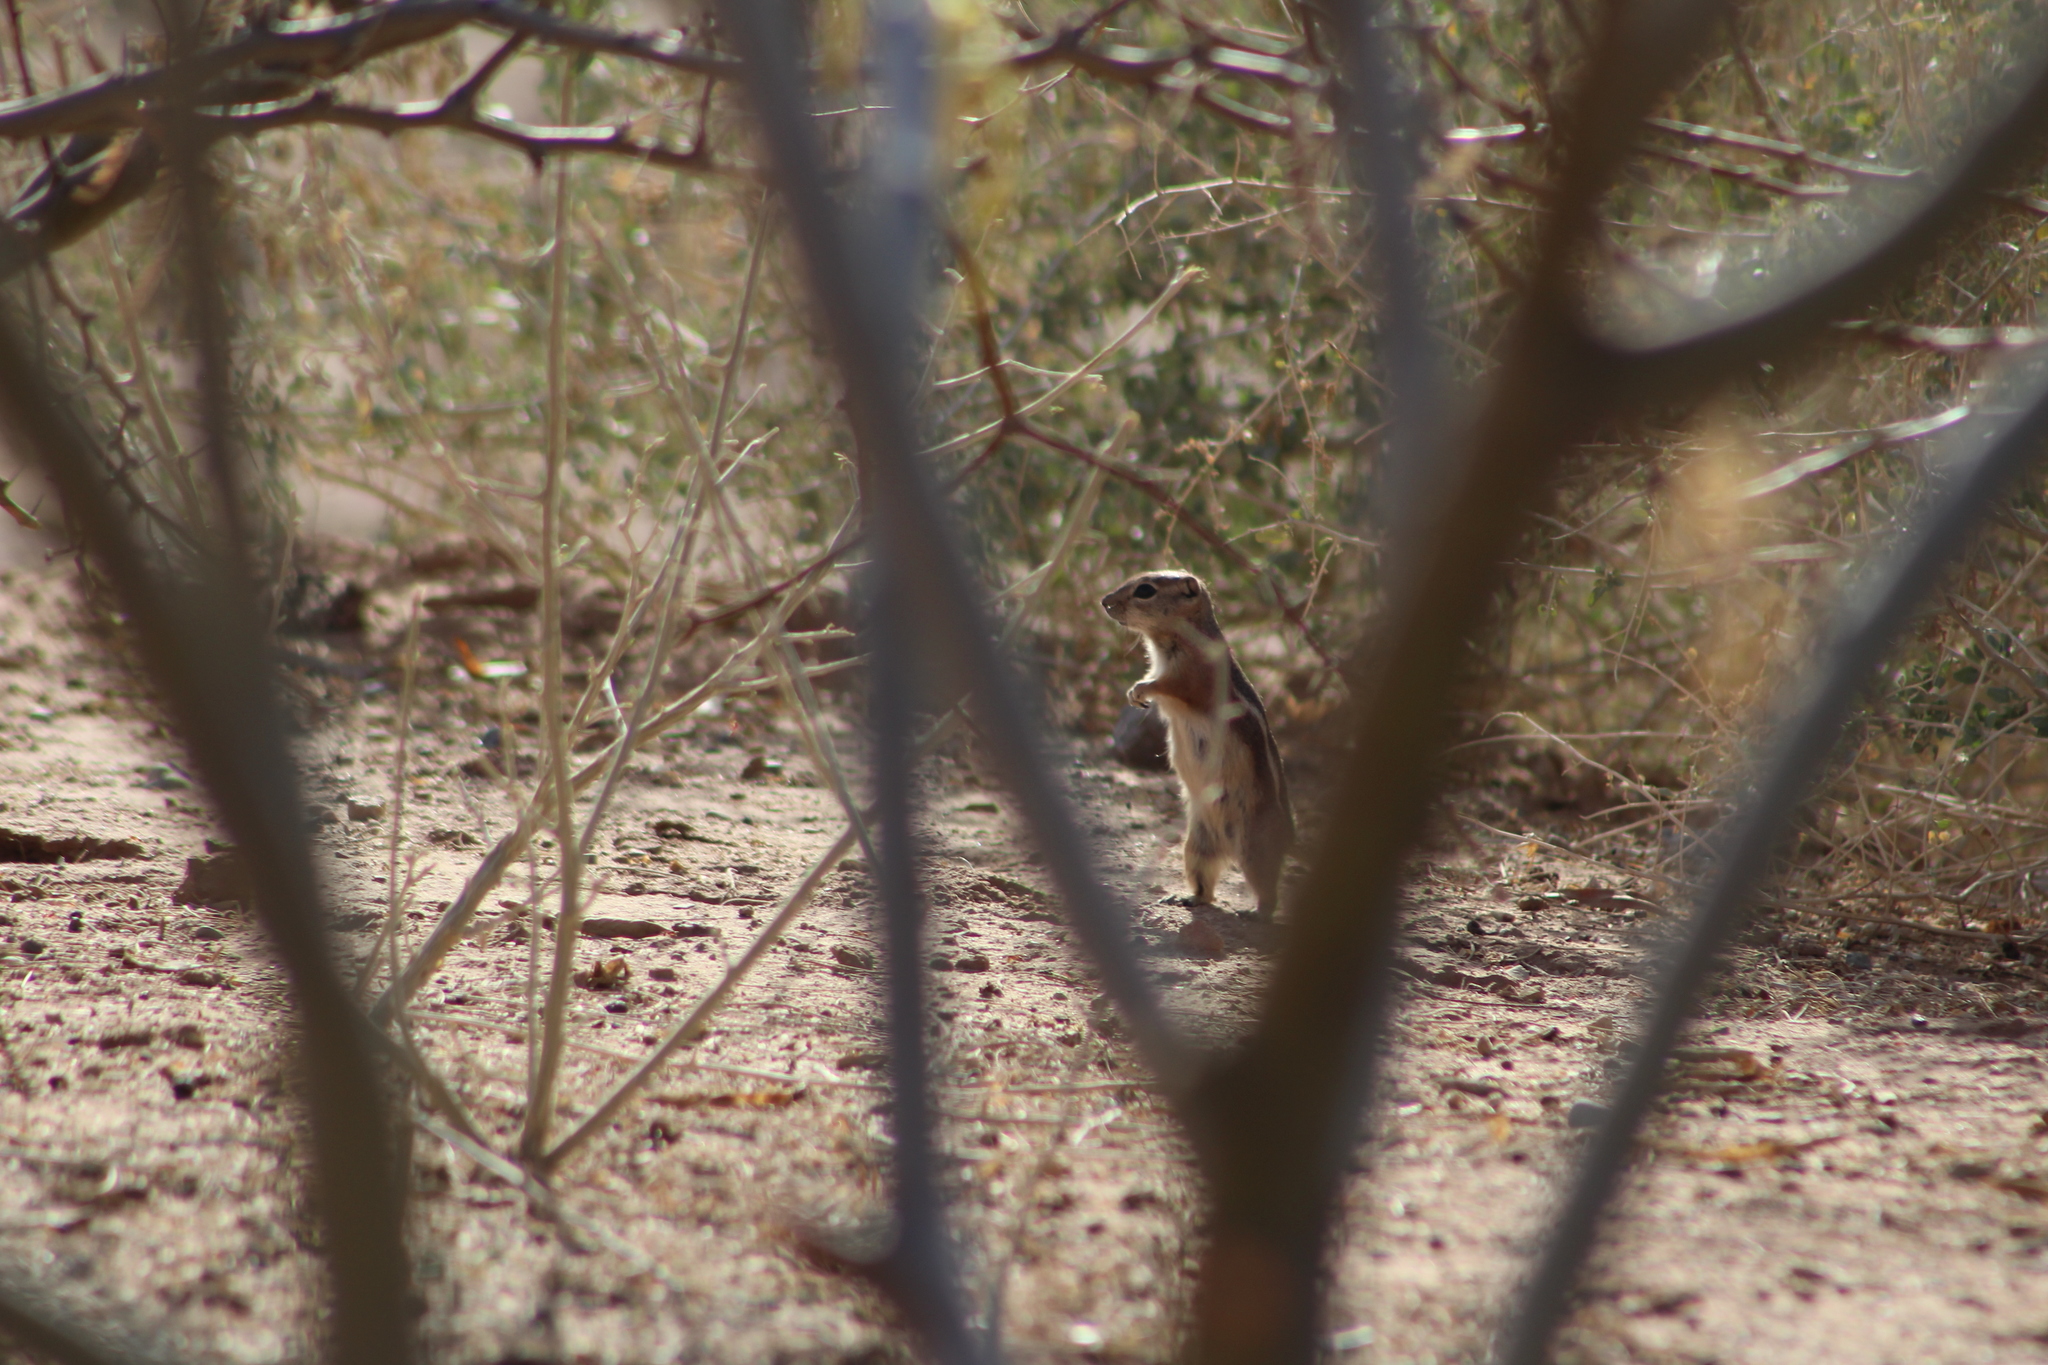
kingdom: Animalia
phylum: Chordata
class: Mammalia
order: Rodentia
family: Sciuridae
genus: Ammospermophilus
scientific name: Ammospermophilus leucurus
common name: White-tailed antelope squirrel
